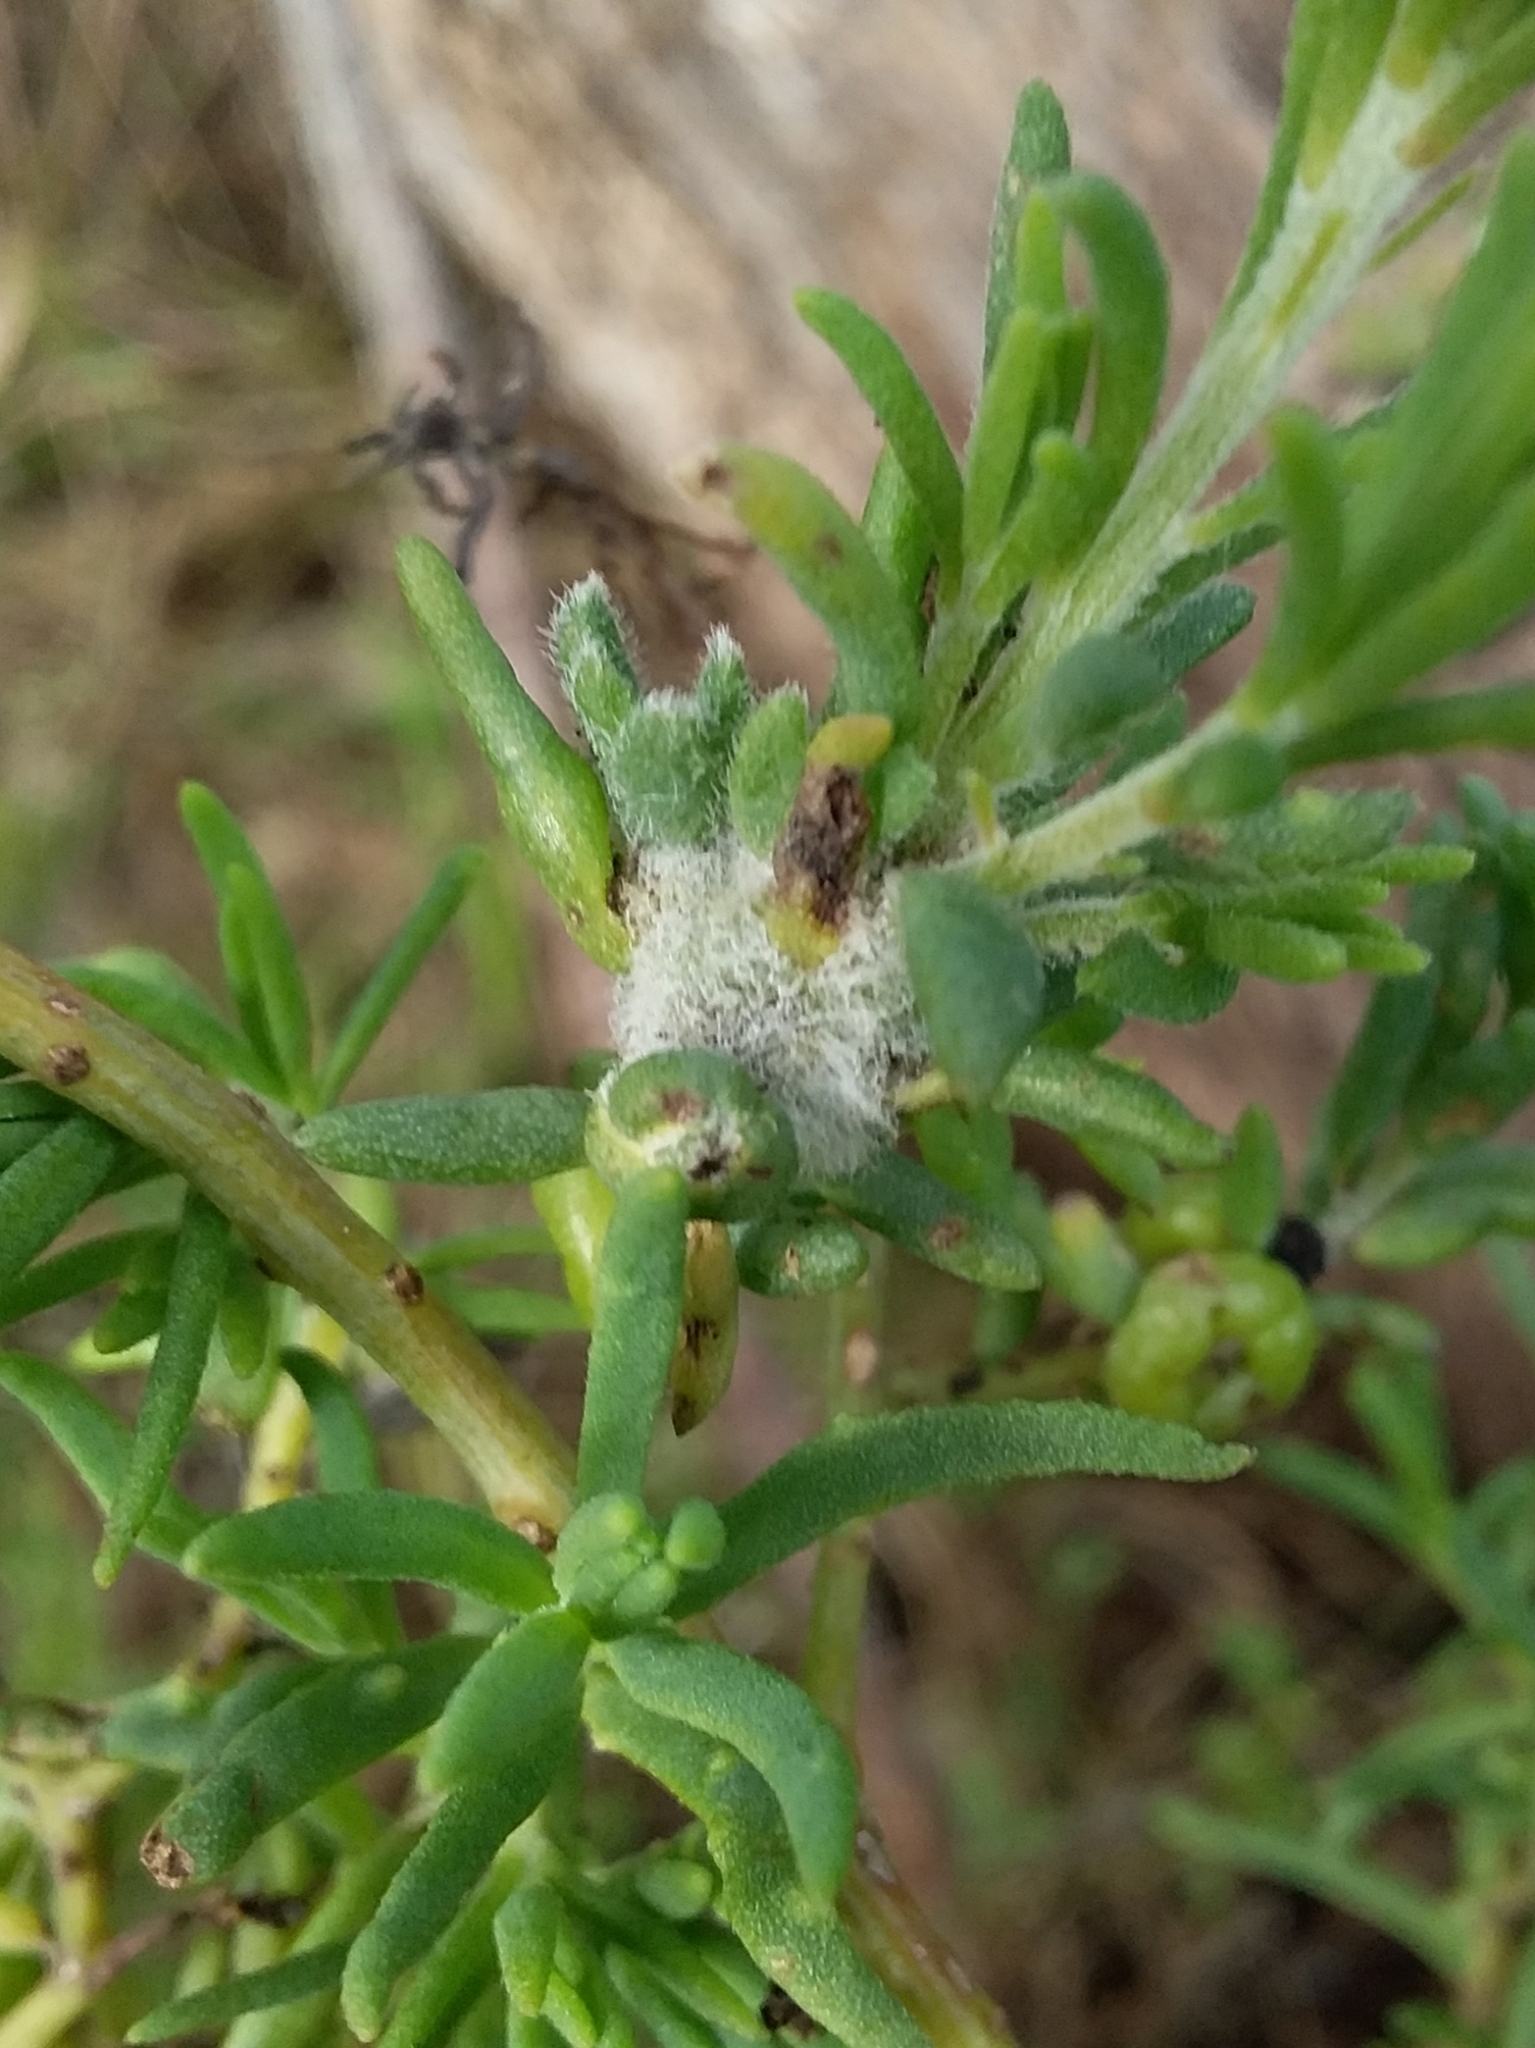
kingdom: Animalia
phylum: Arthropoda
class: Insecta
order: Diptera
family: Cecidomyiidae
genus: Asphondylia
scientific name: Asphondylia tonsura
